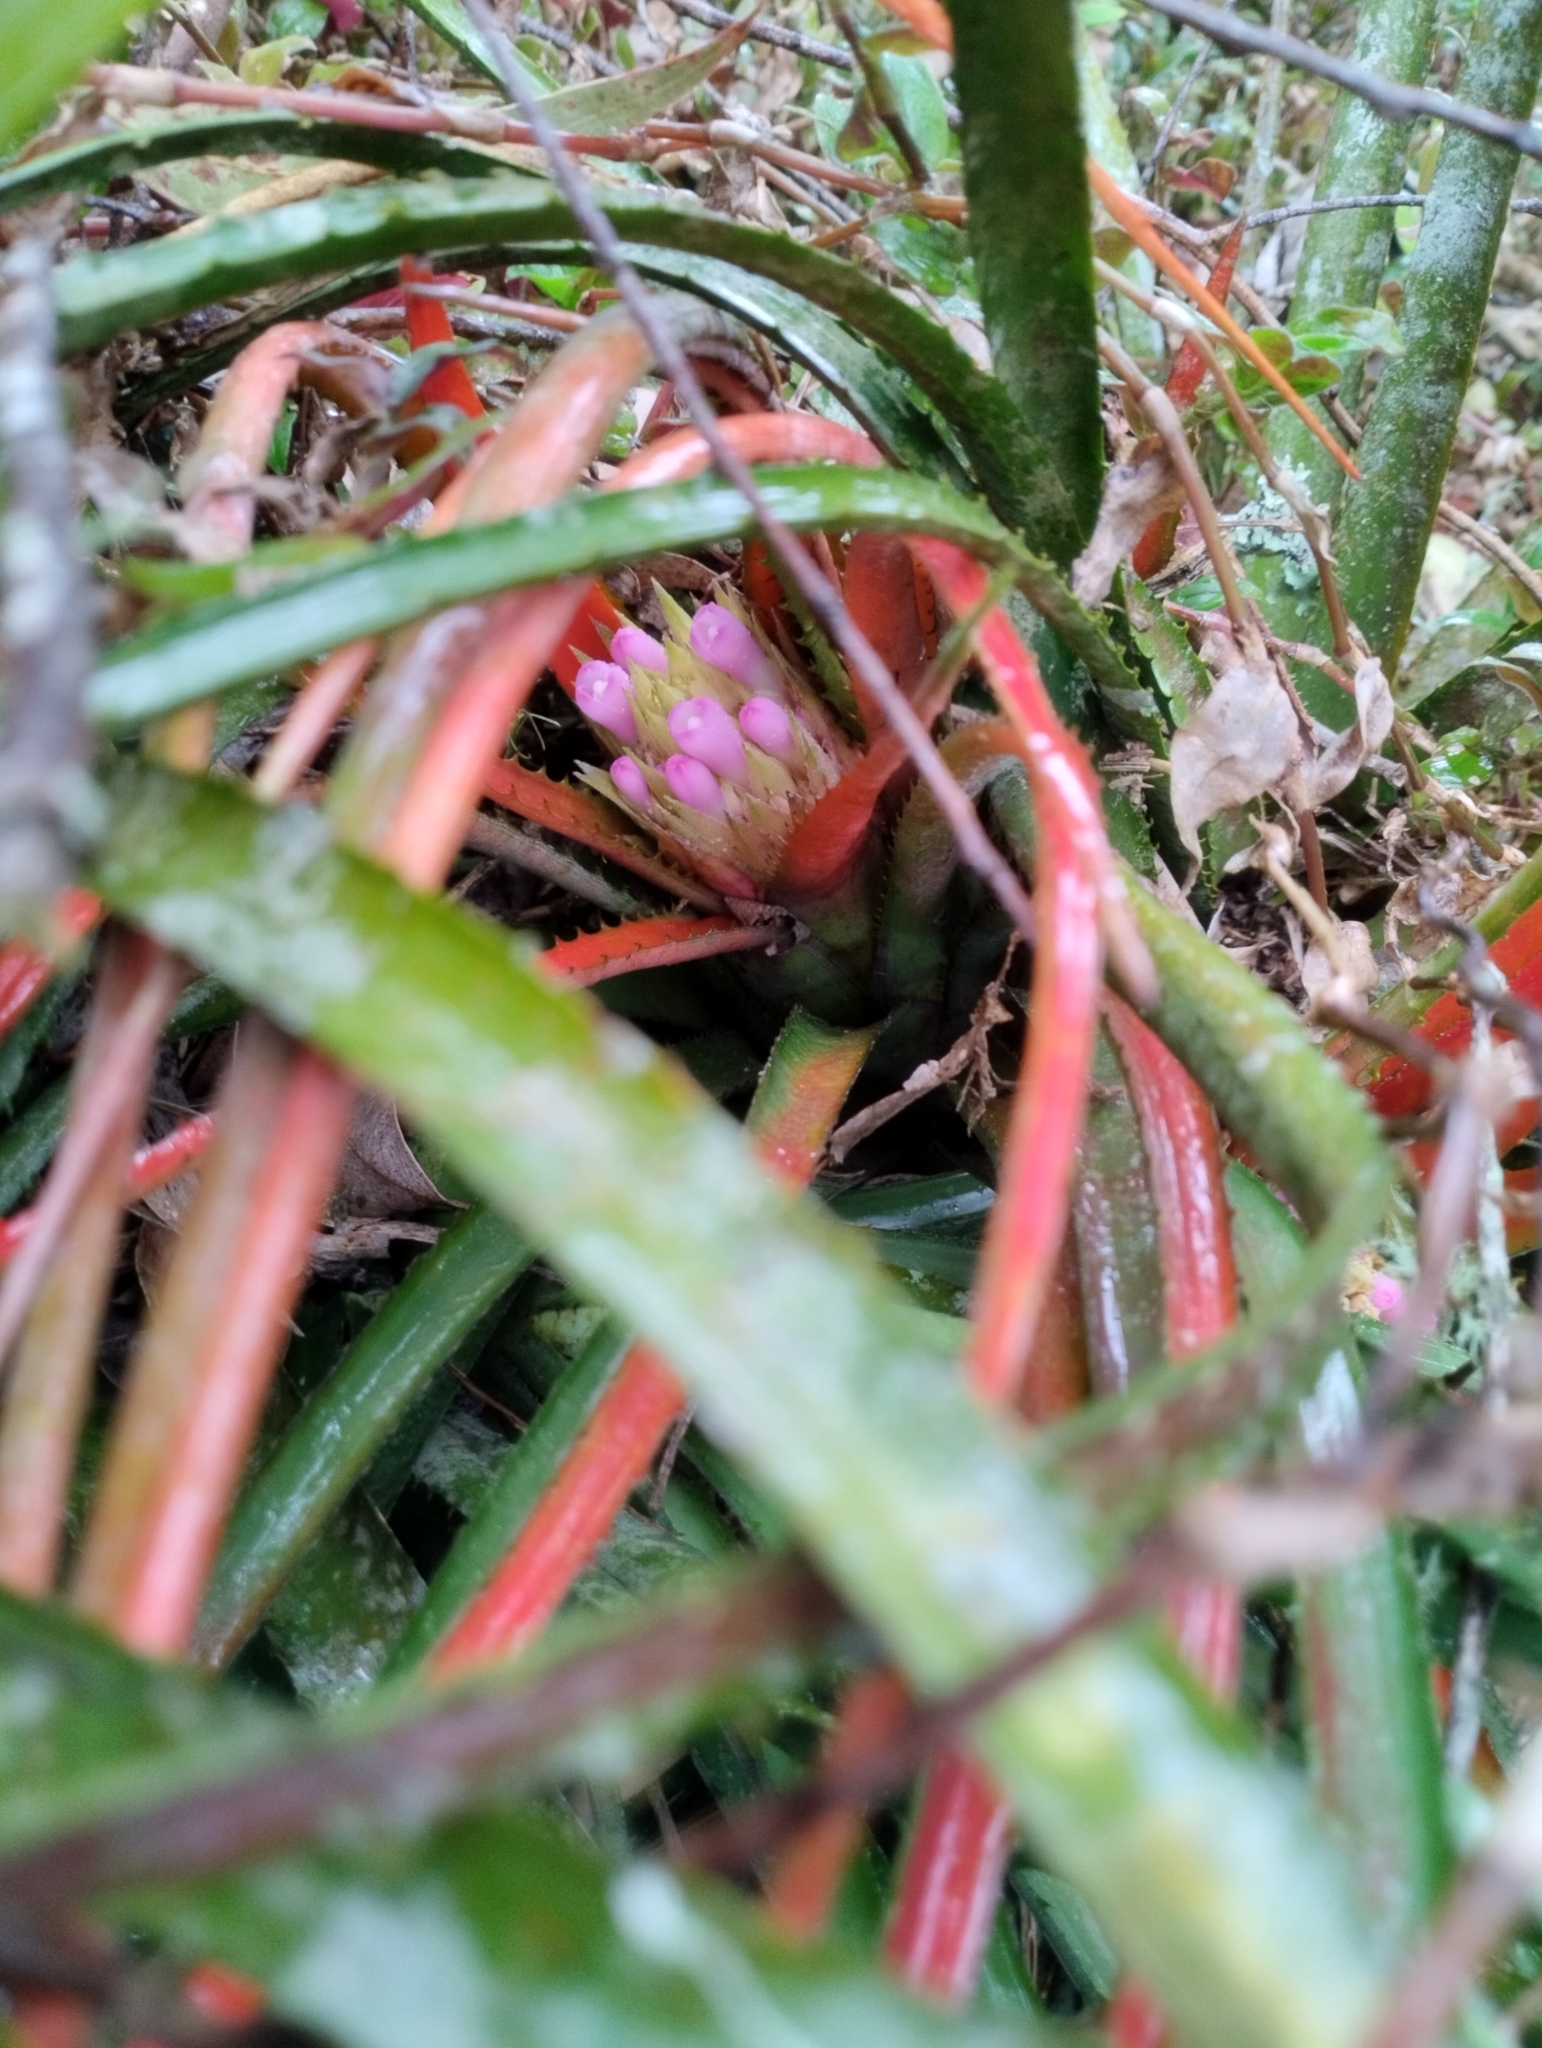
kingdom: Plantae
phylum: Tracheophyta
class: Liliopsida
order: Poales
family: Bromeliaceae
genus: Aechmea
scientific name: Aechmea recurvata
